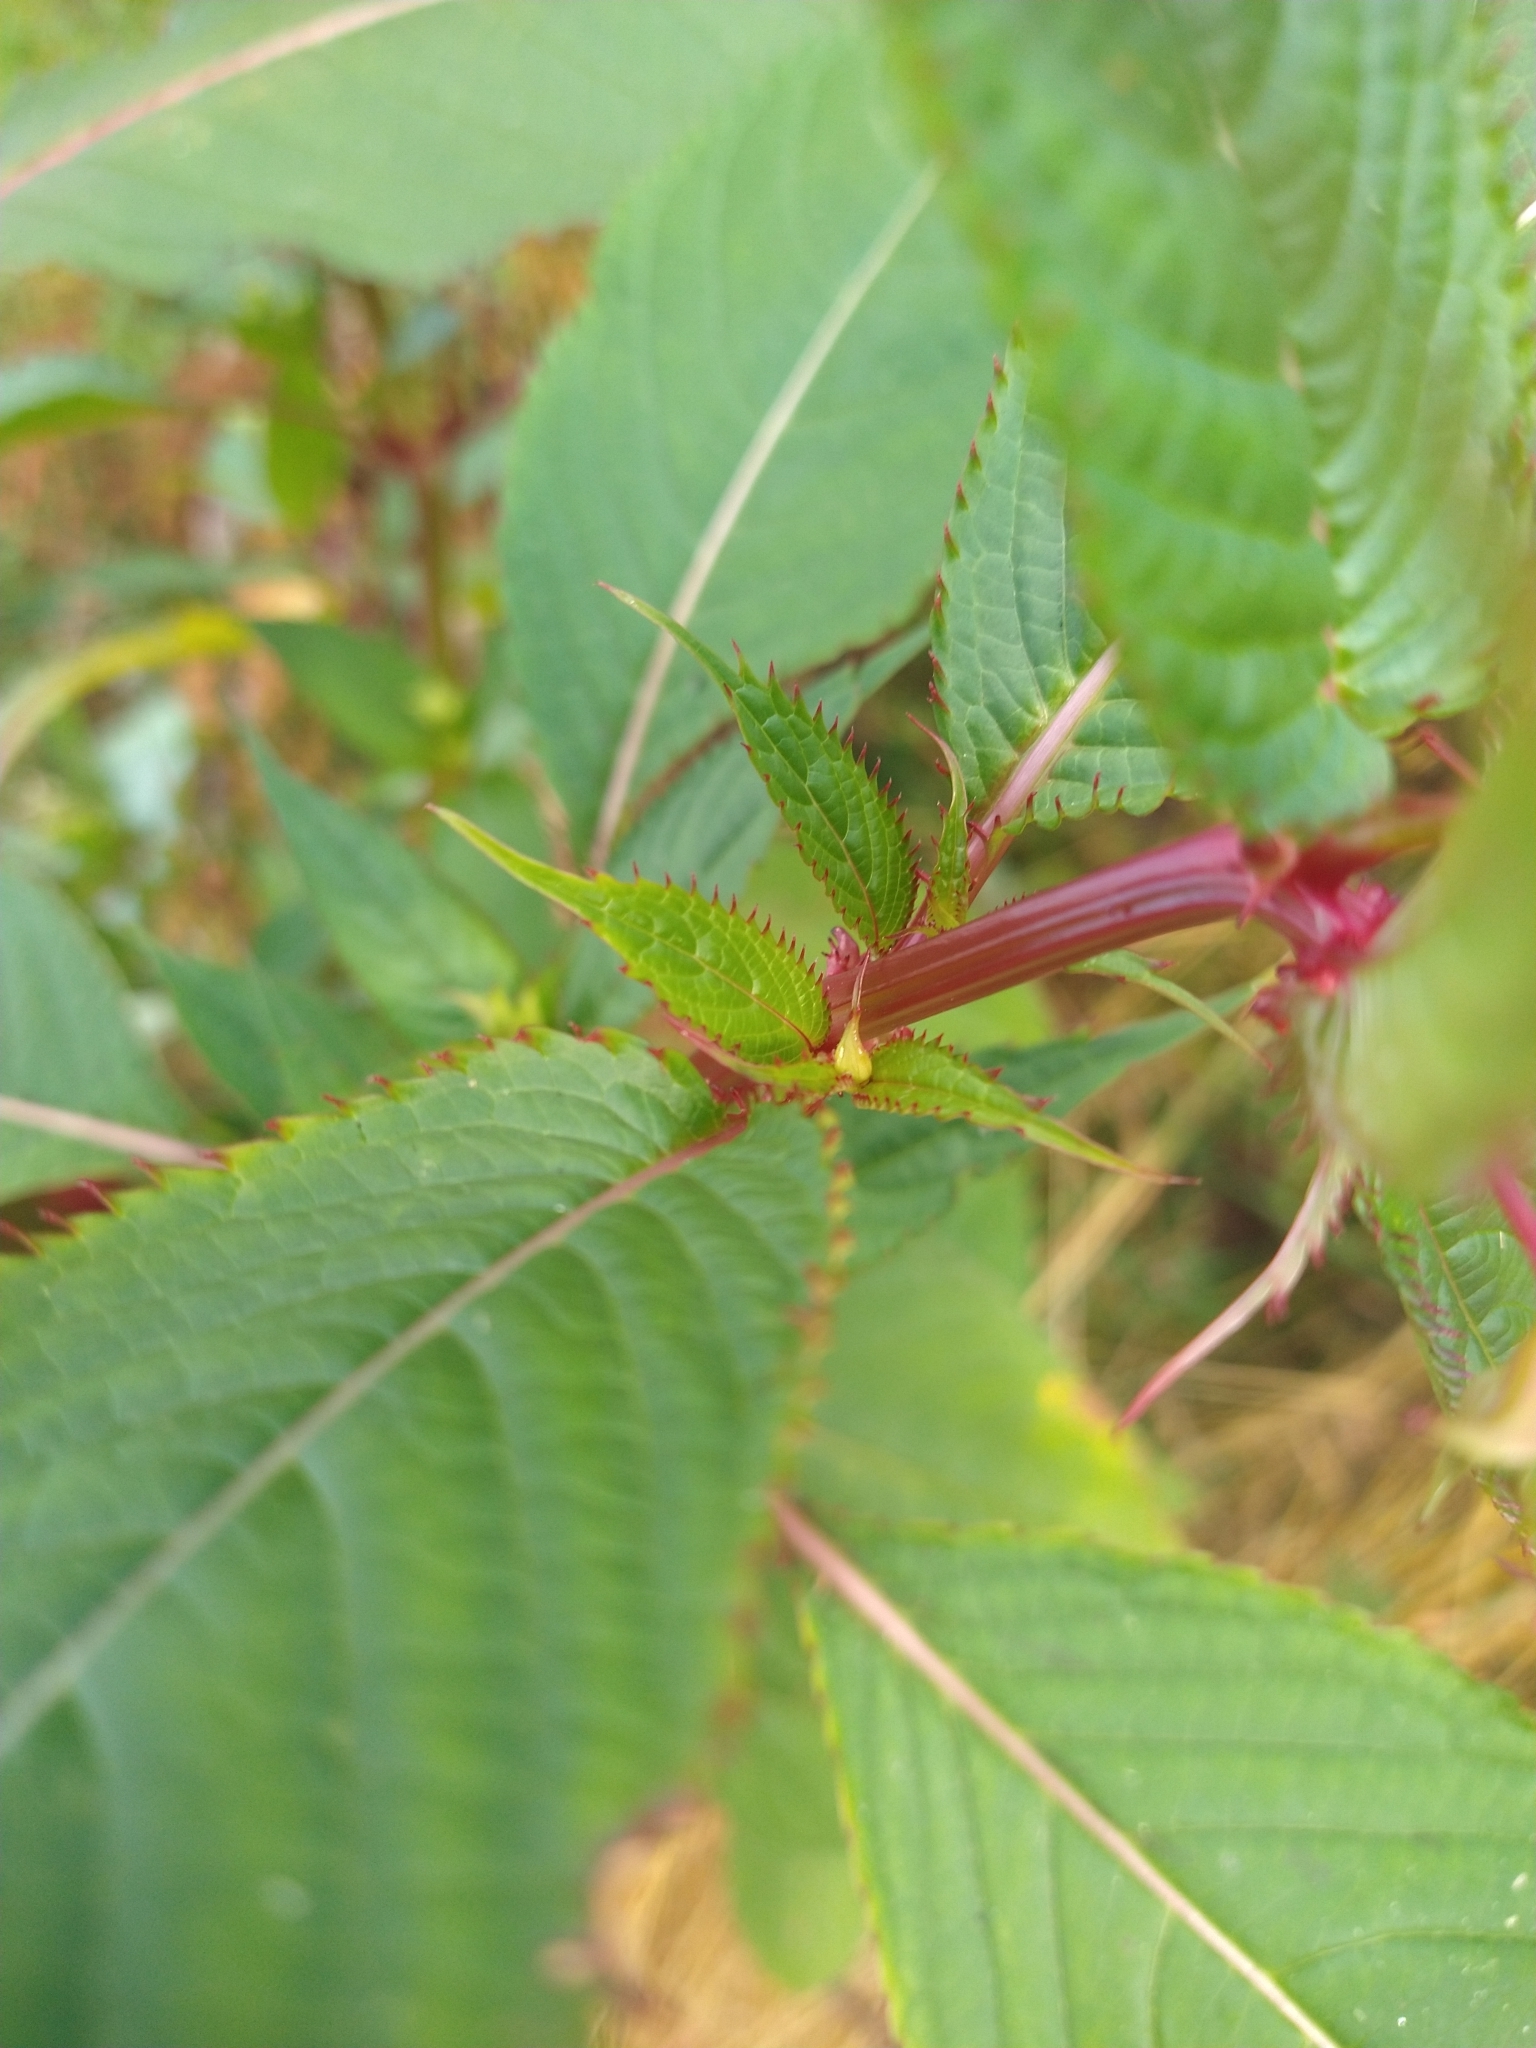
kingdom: Plantae
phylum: Tracheophyta
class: Magnoliopsida
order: Ericales
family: Balsaminaceae
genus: Impatiens
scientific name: Impatiens glandulifera
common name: Himalayan balsam
